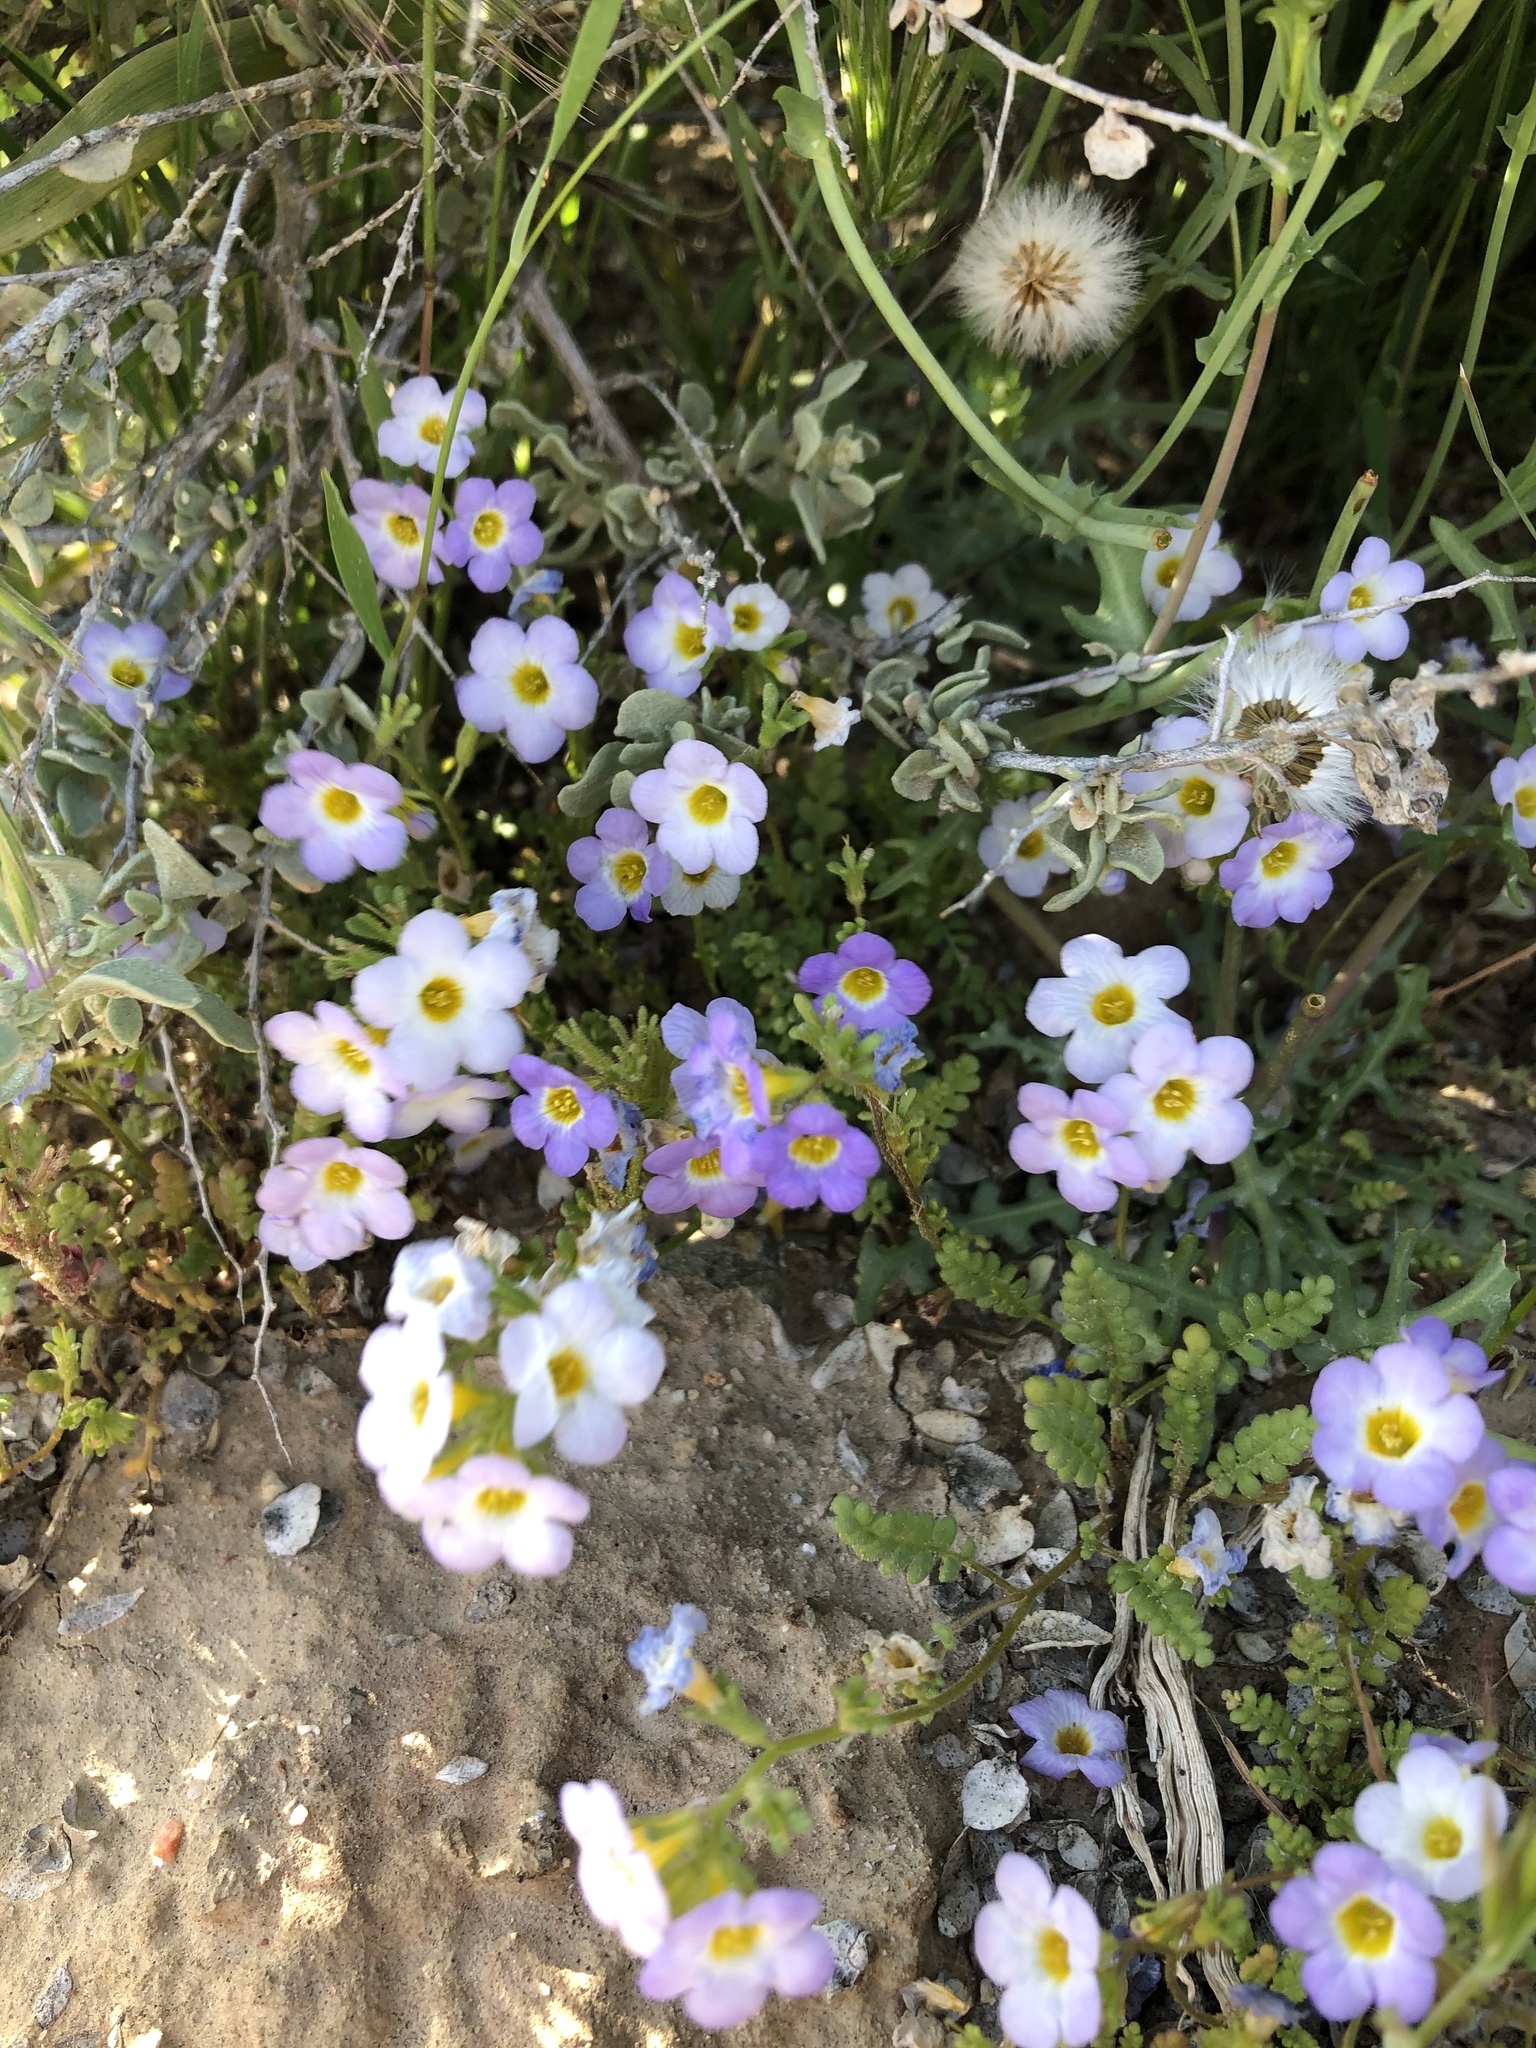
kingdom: Plantae
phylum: Tracheophyta
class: Magnoliopsida
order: Boraginales
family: Hydrophyllaceae
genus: Phacelia
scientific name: Phacelia fremontii
